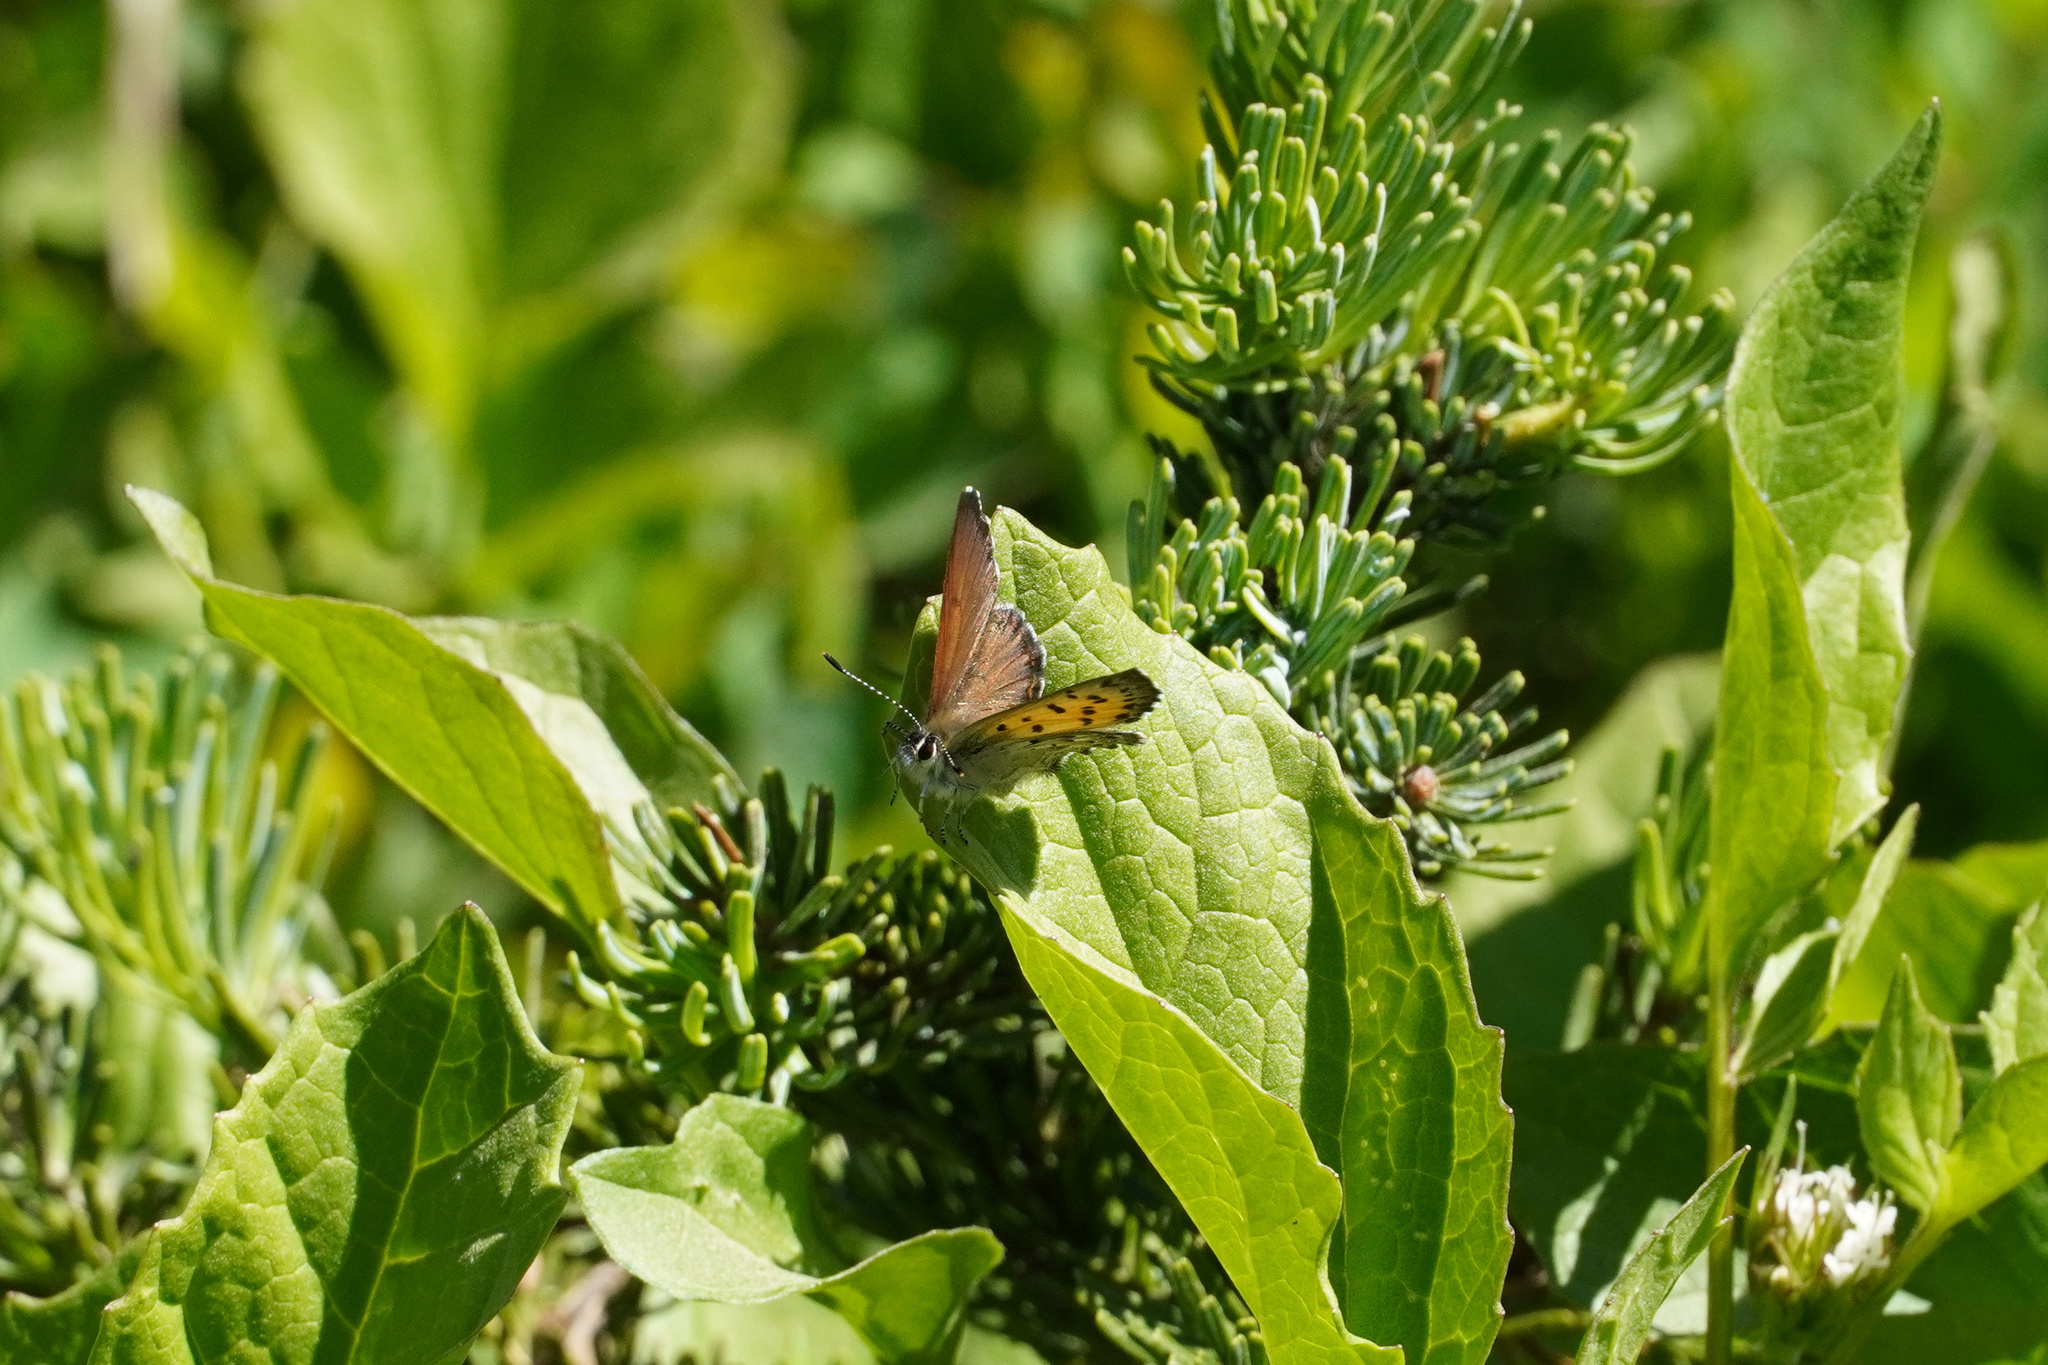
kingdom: Animalia
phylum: Arthropoda
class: Insecta
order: Lepidoptera
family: Lycaenidae
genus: Tharsalea
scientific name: Tharsalea mariposa
